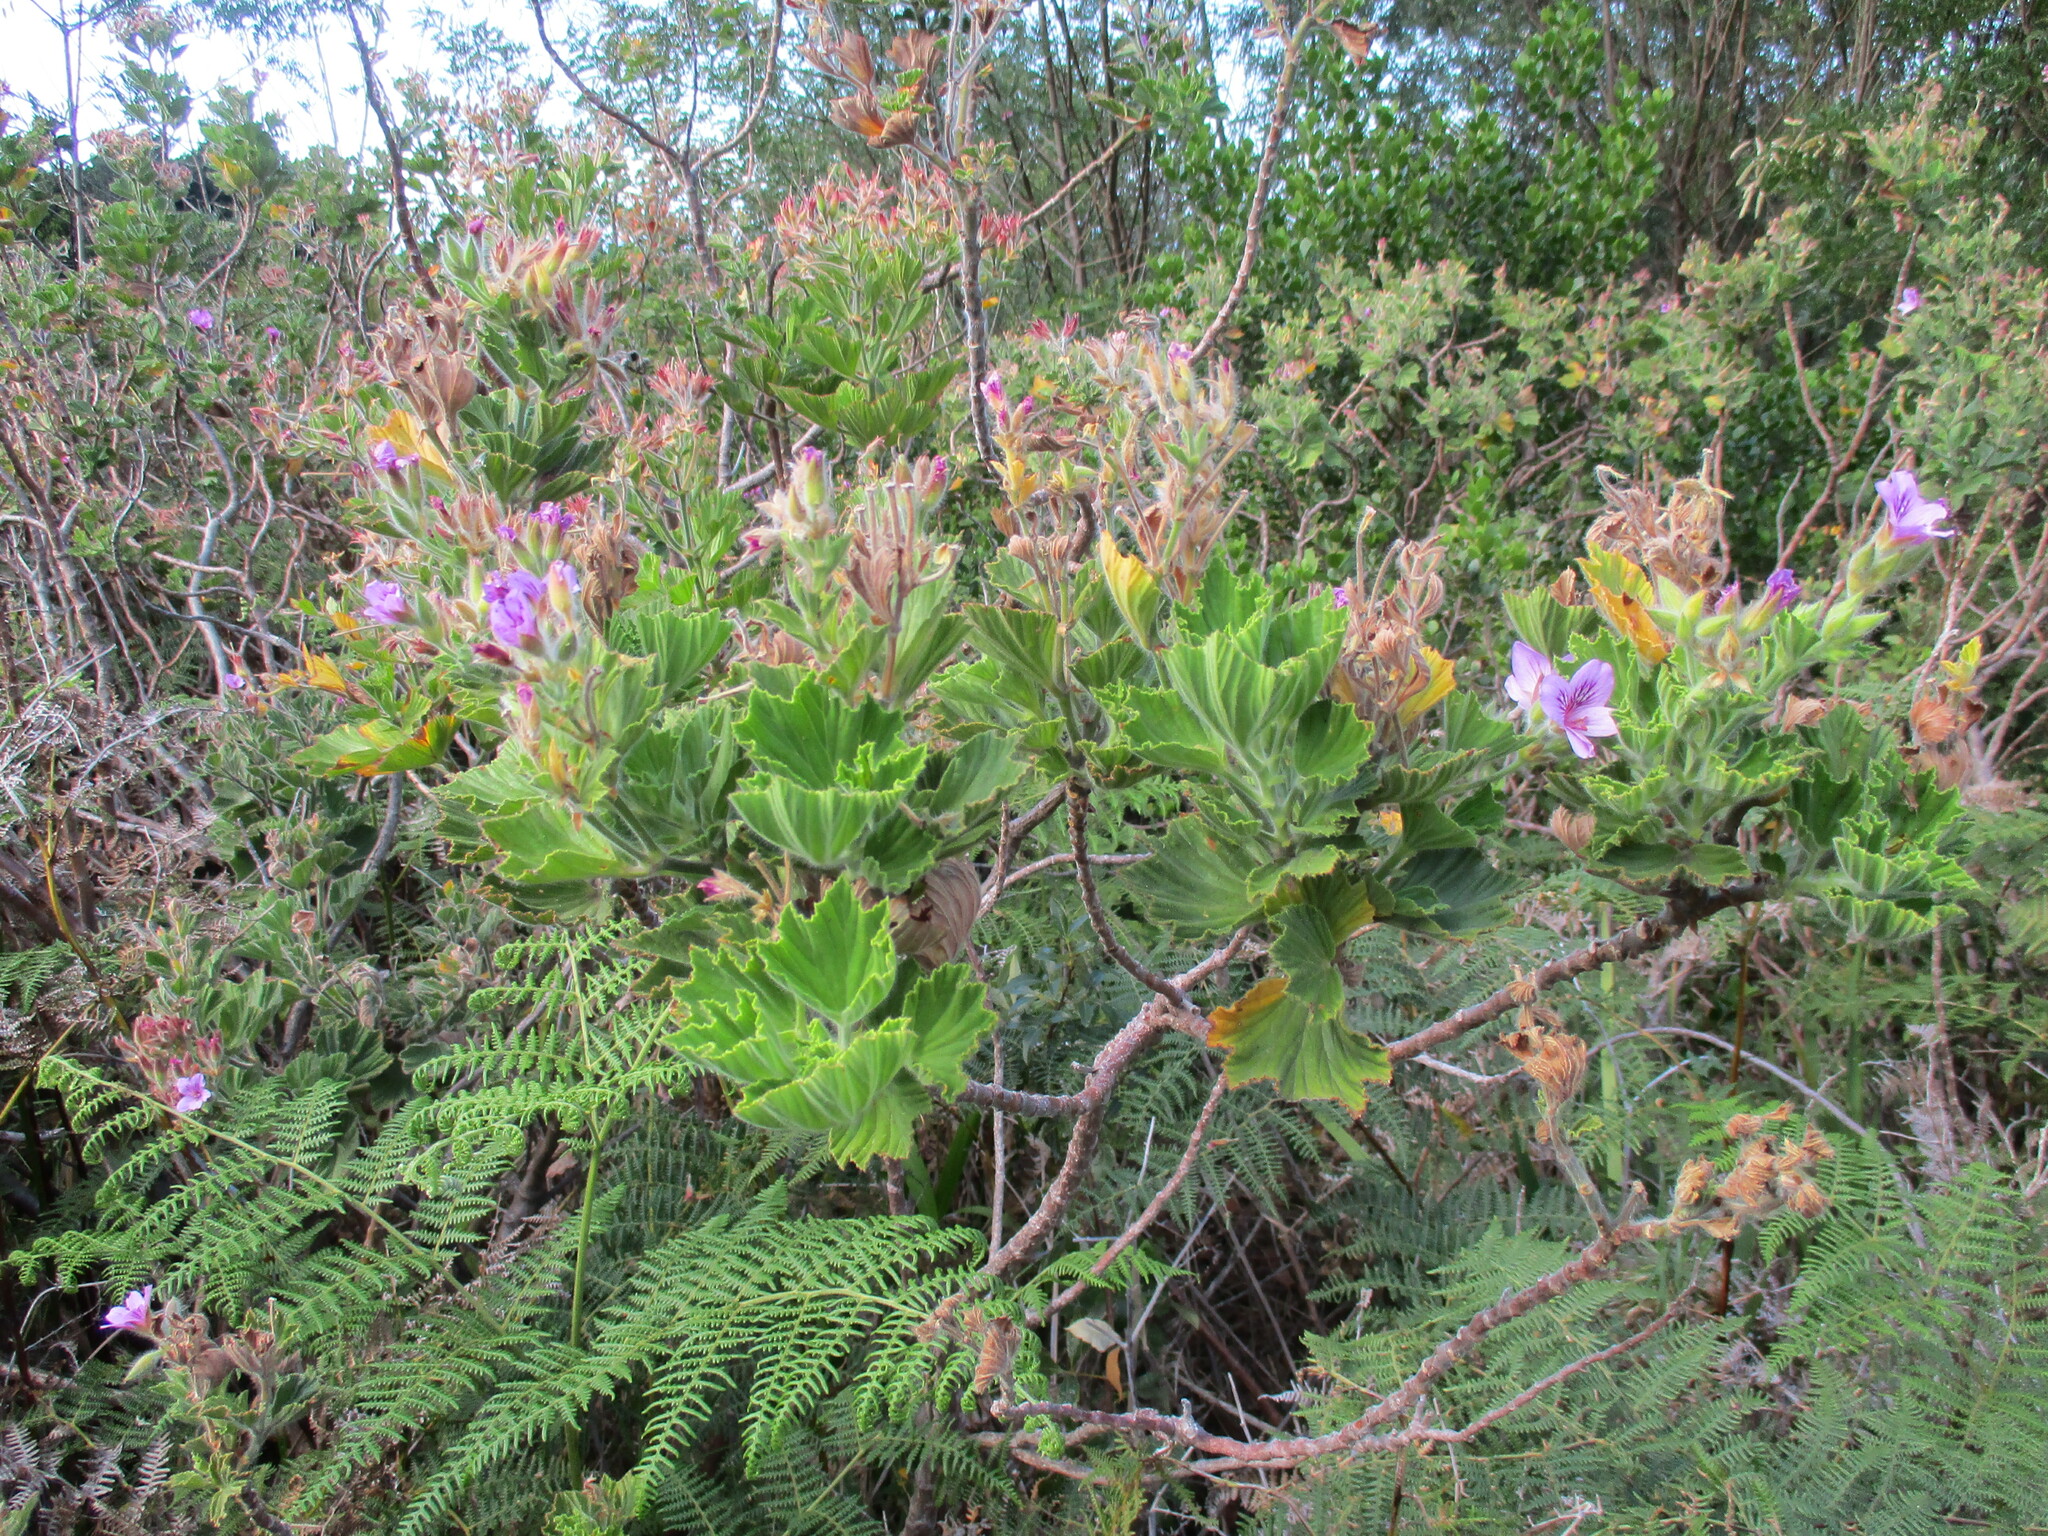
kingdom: Plantae
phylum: Tracheophyta
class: Magnoliopsida
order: Geraniales
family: Geraniaceae
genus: Pelargonium
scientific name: Pelargonium cucullatum
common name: Tree pelargonium
